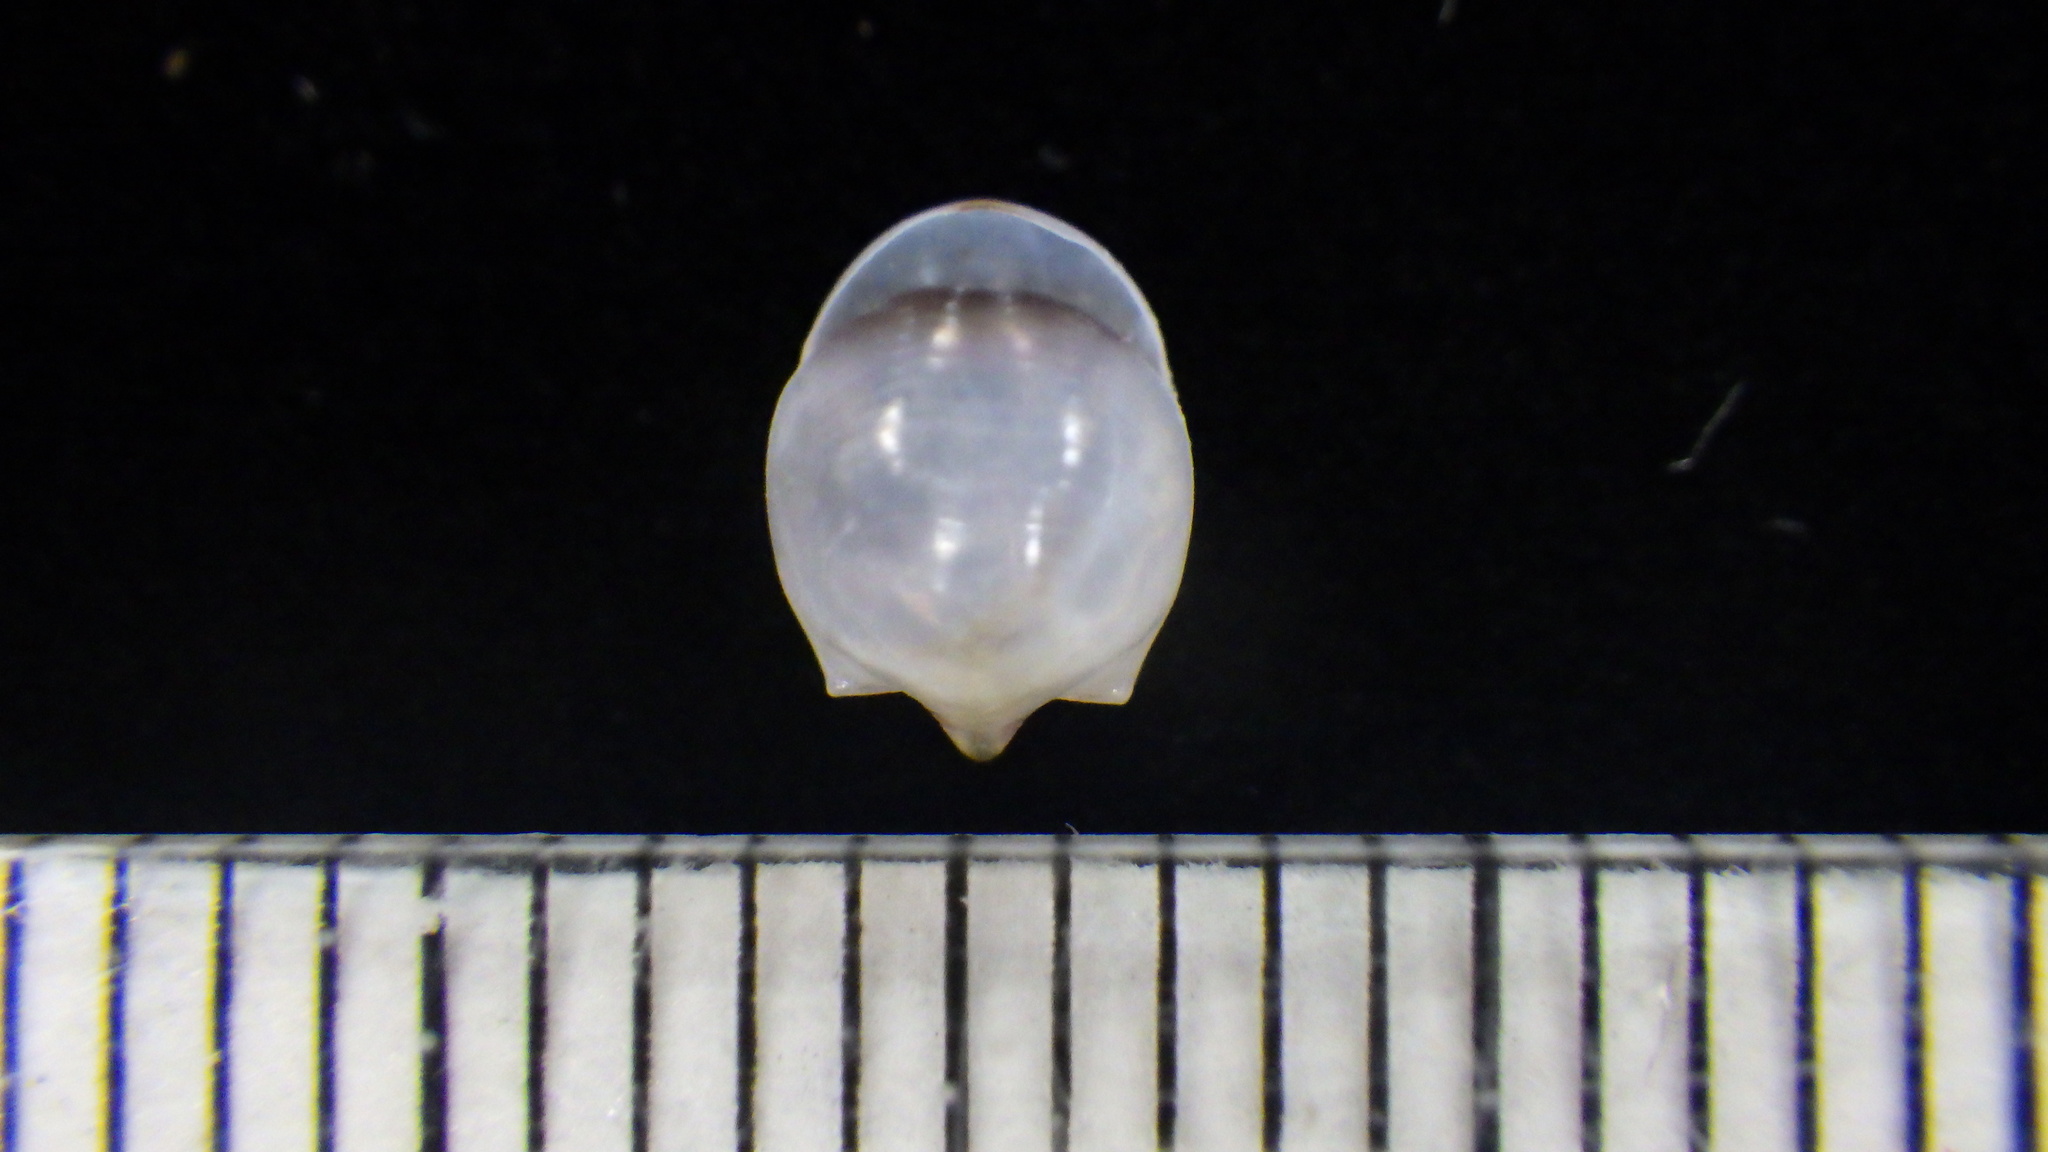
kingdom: Animalia
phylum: Mollusca
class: Gastropoda
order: Pteropoda
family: Cavoliniidae
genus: Cavolinia
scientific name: Cavolinia globulosa
